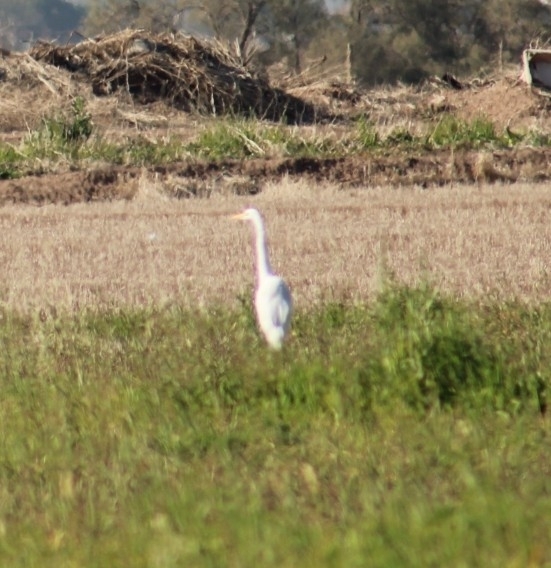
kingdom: Animalia
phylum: Chordata
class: Aves
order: Pelecaniformes
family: Ardeidae
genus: Ardea
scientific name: Ardea alba
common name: Great egret
